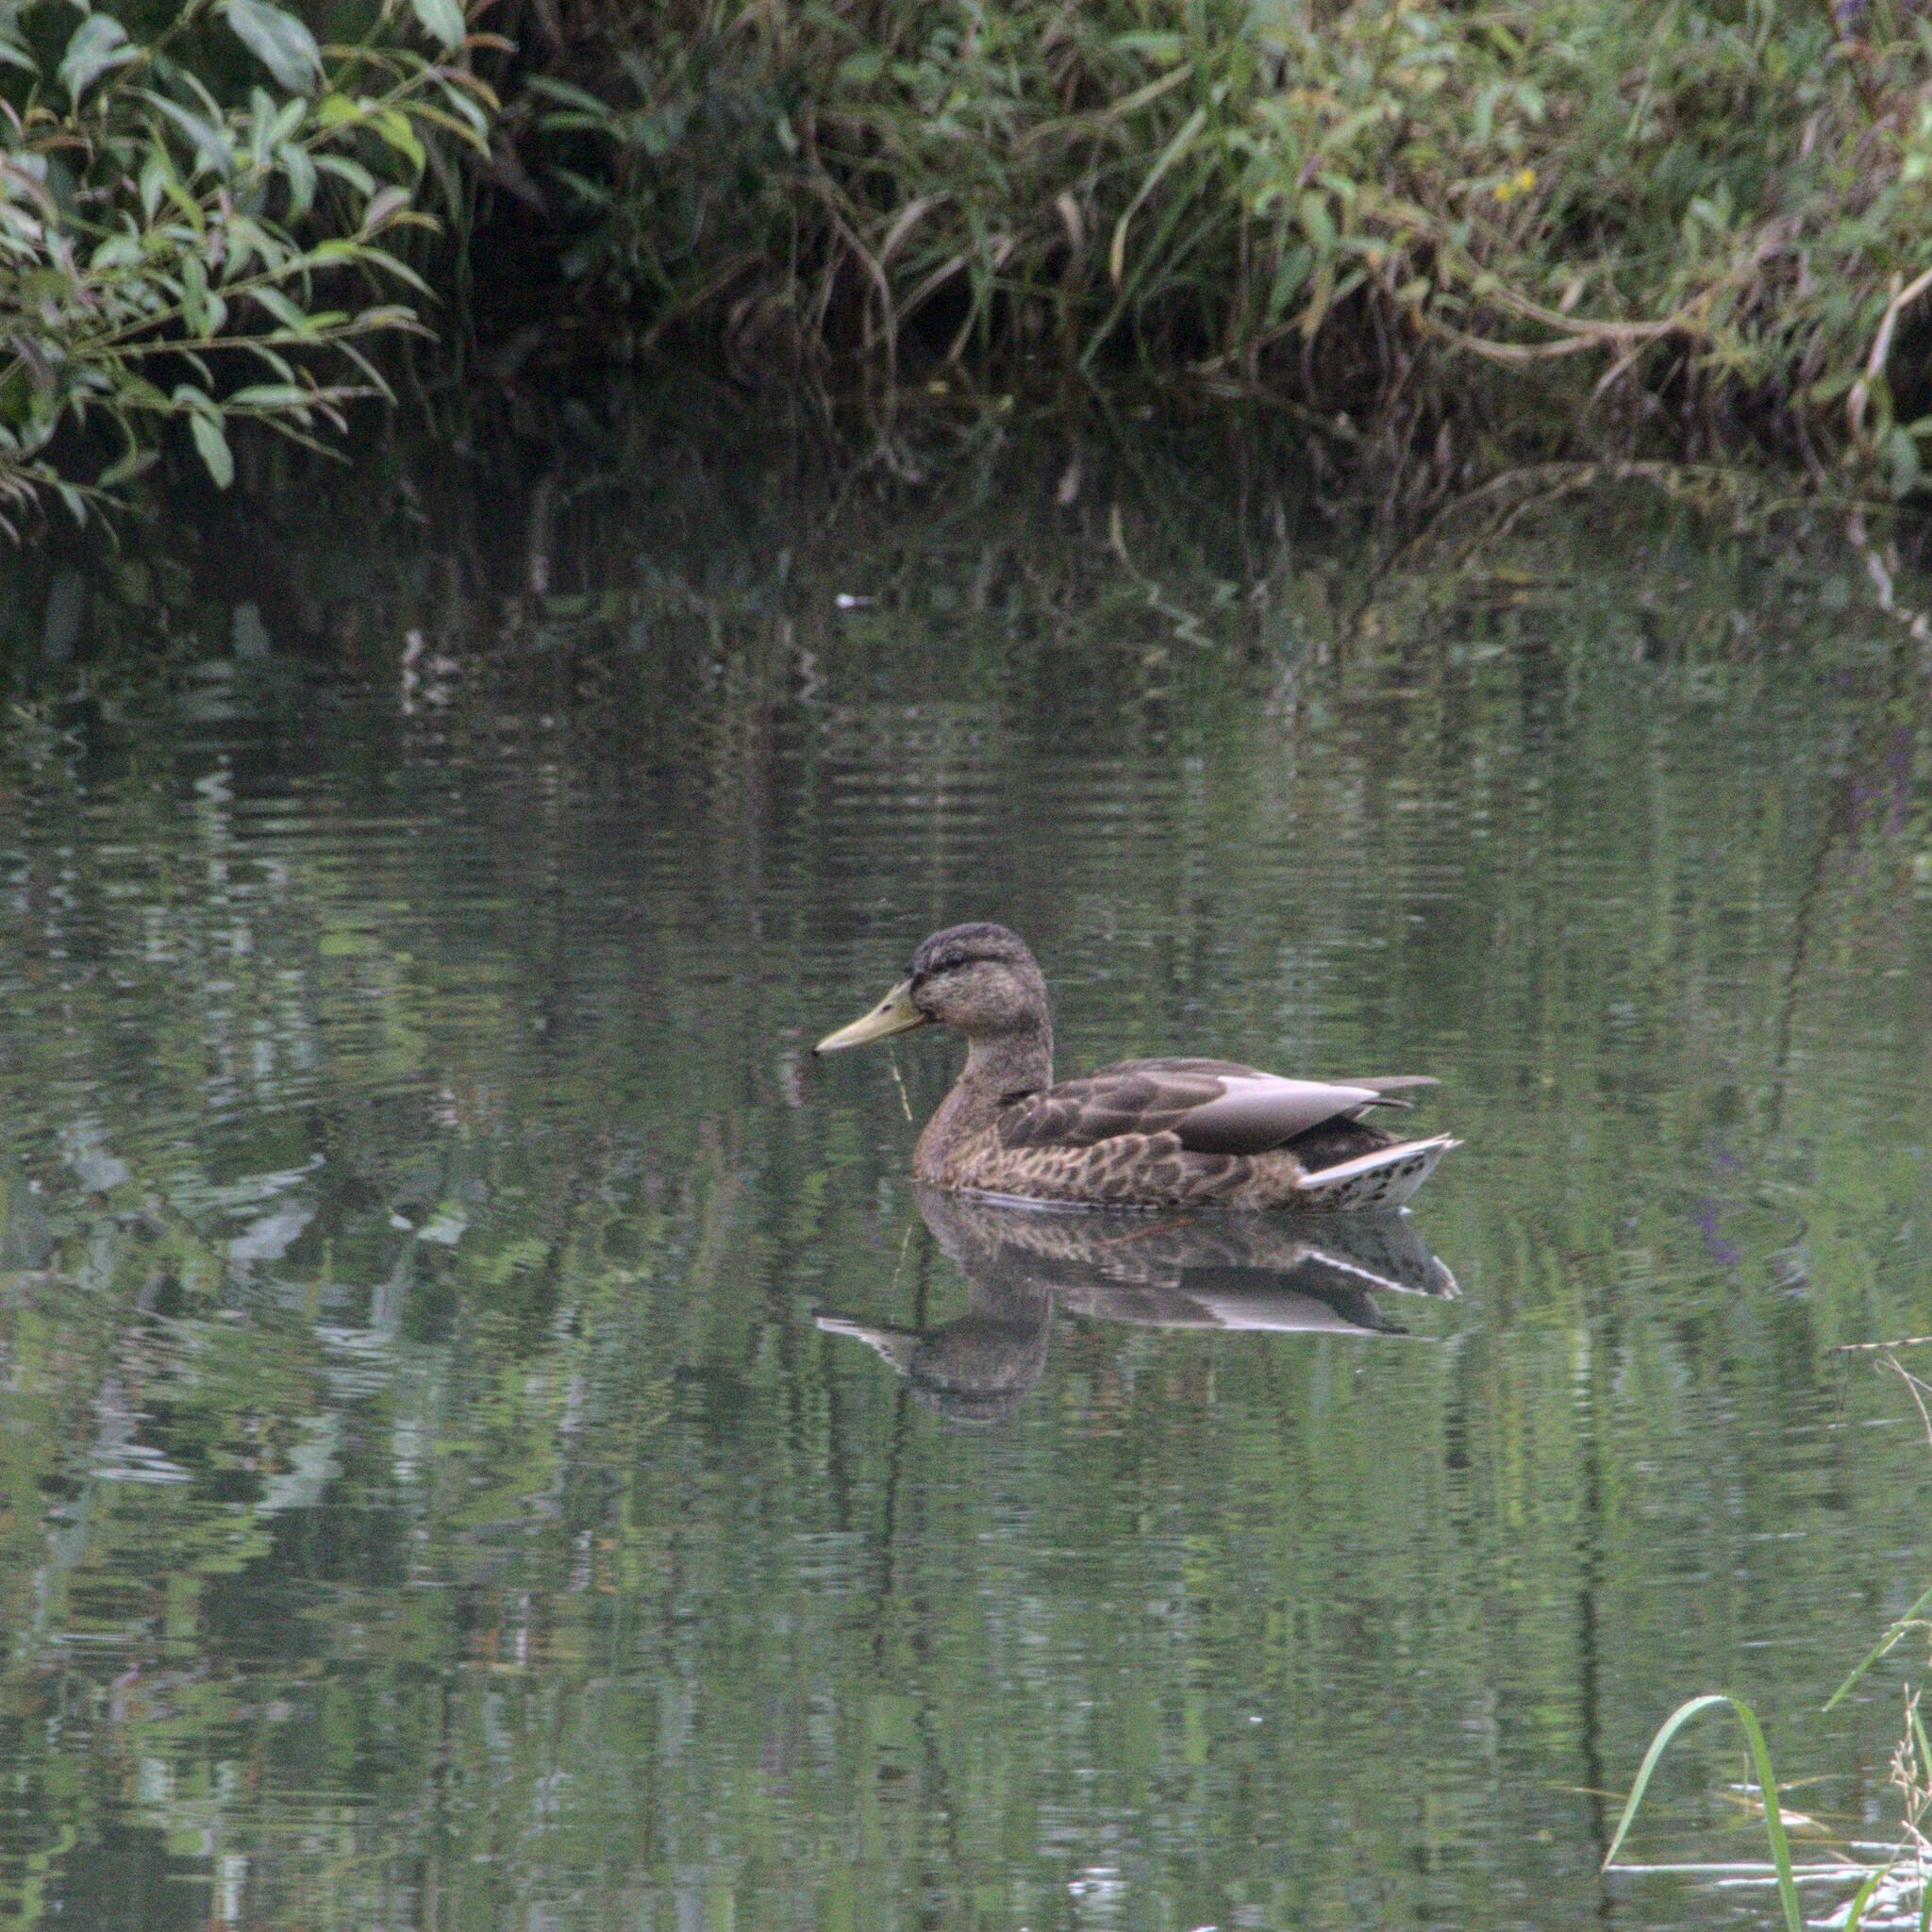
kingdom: Animalia
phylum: Chordata
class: Aves
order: Anseriformes
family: Anatidae
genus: Anas
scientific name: Anas platyrhynchos
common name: Mallard
